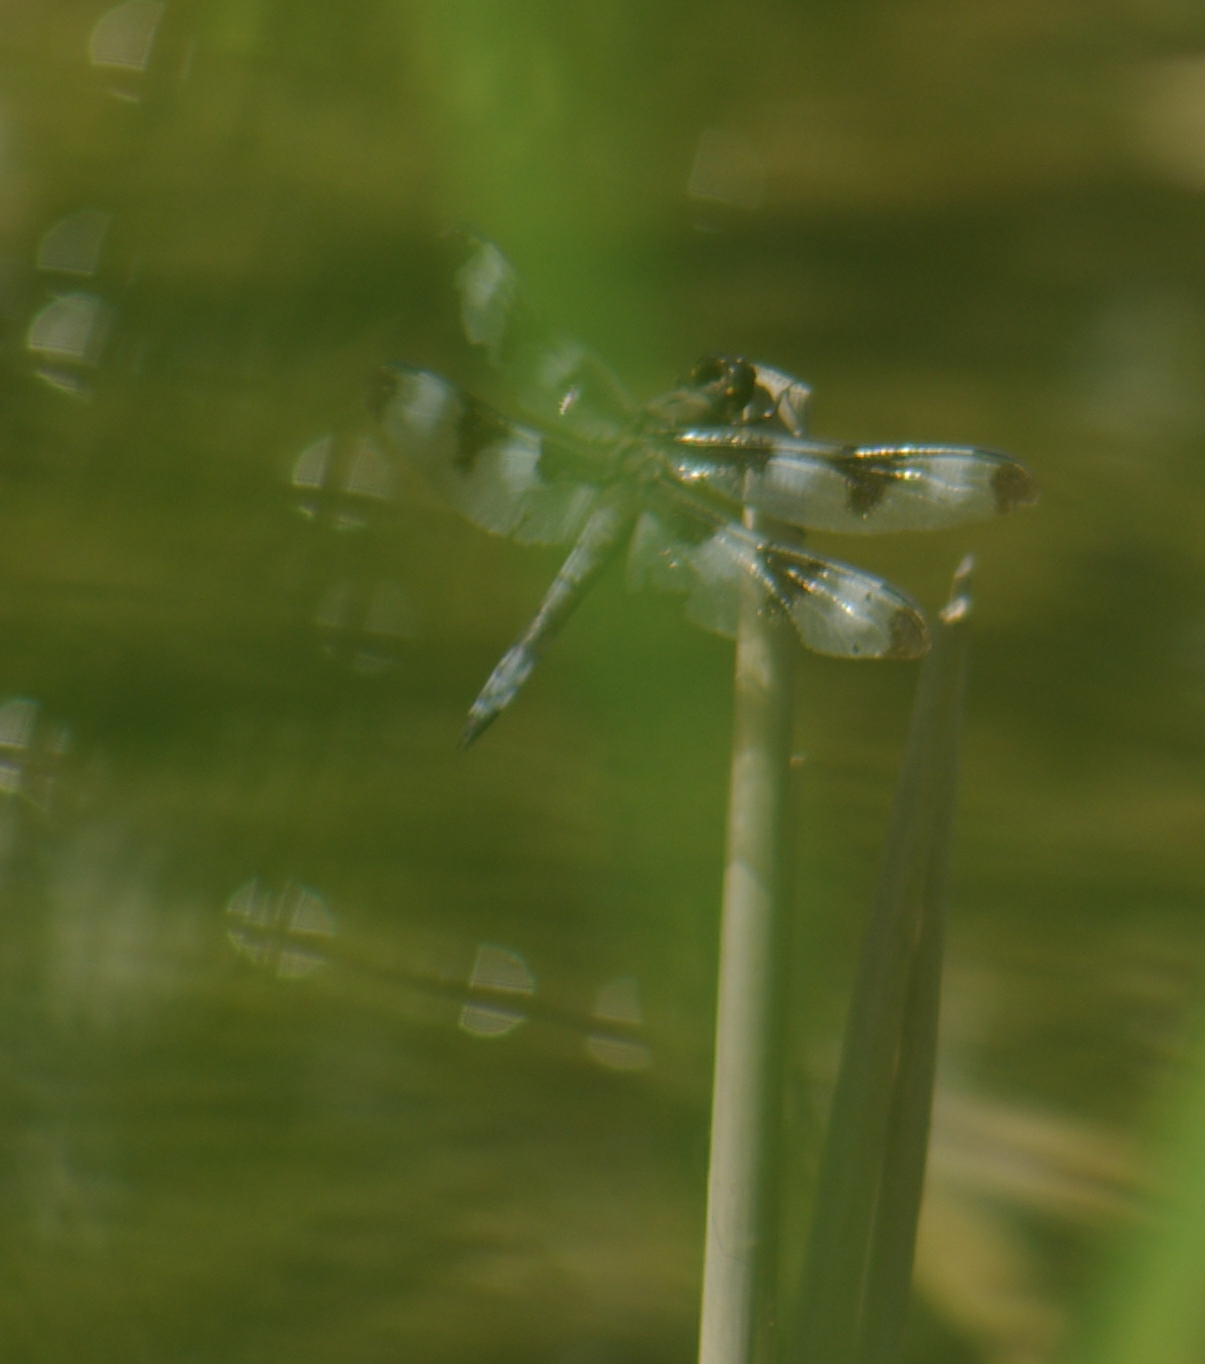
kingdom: Animalia
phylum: Arthropoda
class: Insecta
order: Odonata
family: Libellulidae
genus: Libellula
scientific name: Libellula pulchella
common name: Twelve-spotted skimmer
